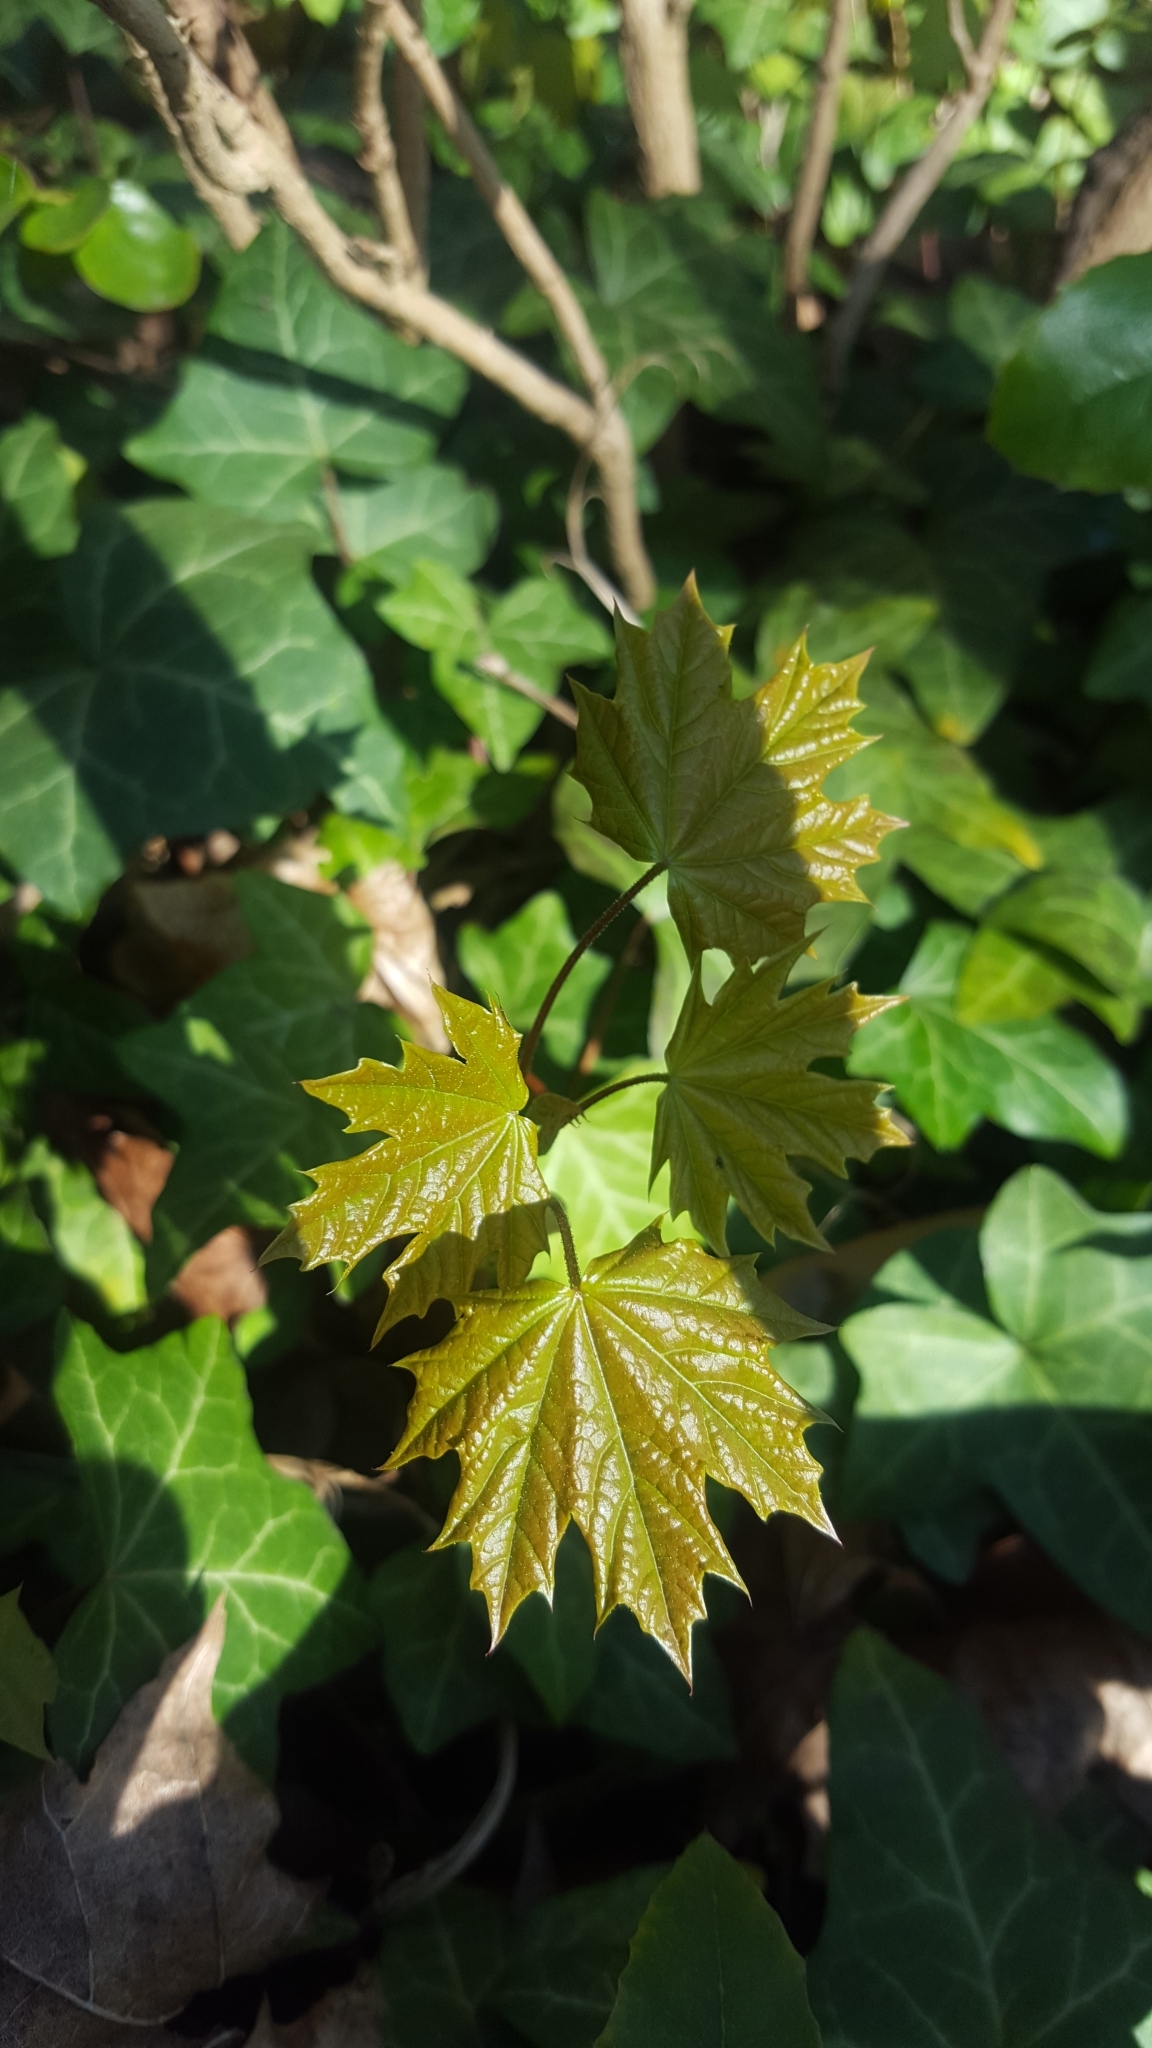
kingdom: Plantae
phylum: Tracheophyta
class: Magnoliopsida
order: Sapindales
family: Sapindaceae
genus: Acer
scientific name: Acer platanoides
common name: Norway maple
